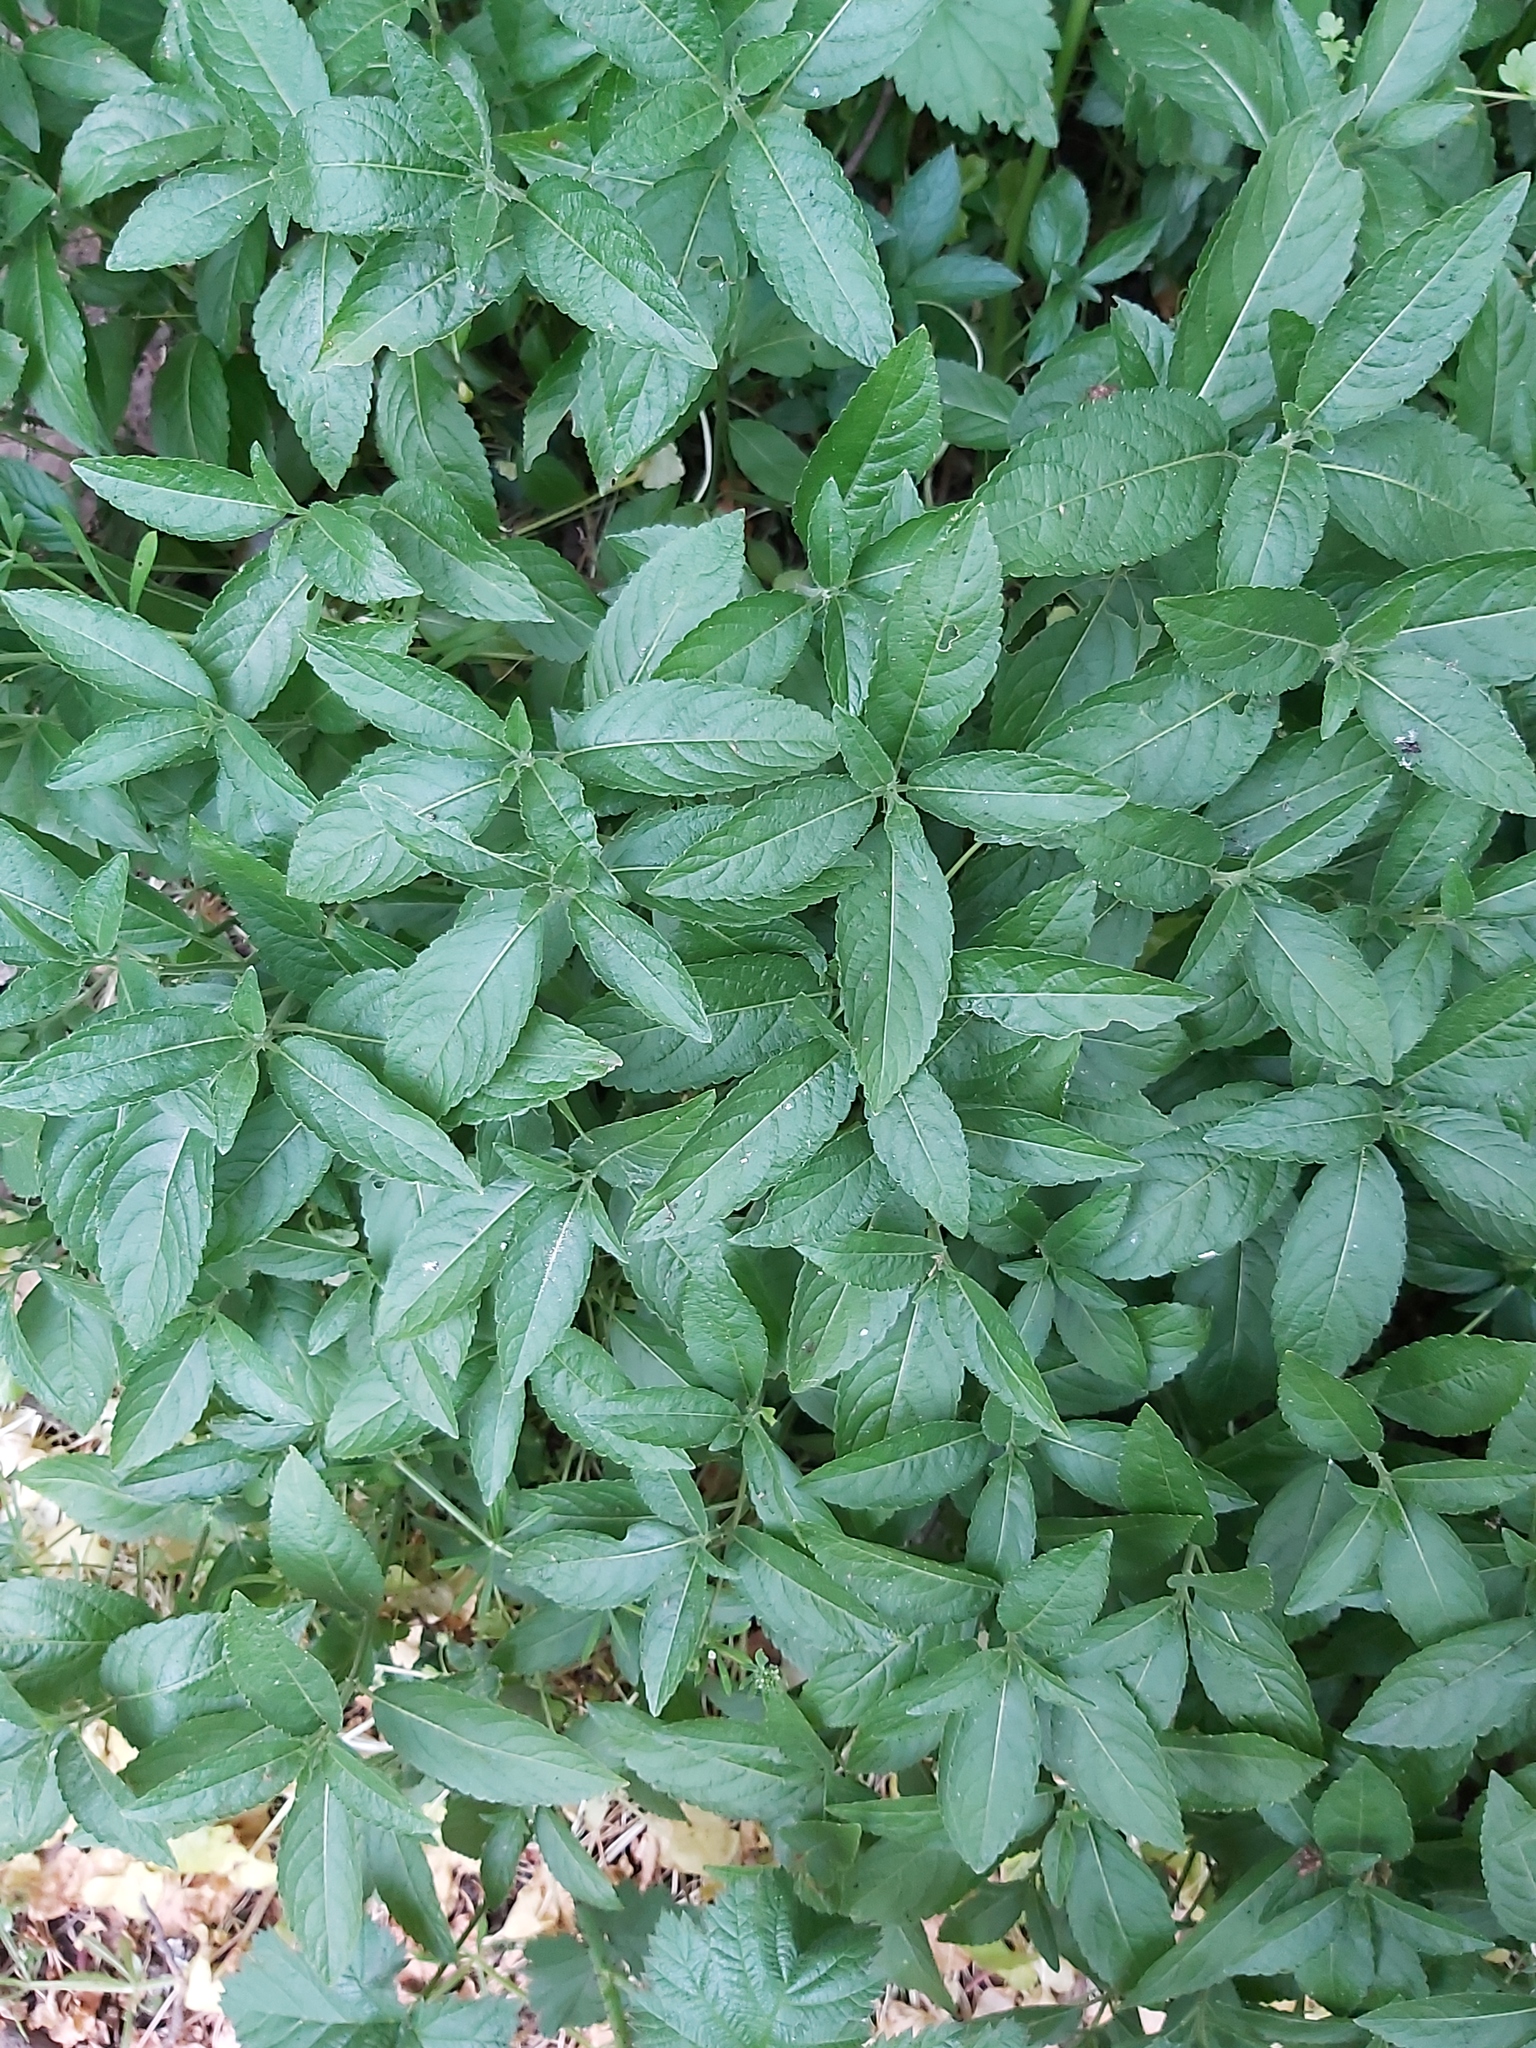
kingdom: Plantae
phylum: Tracheophyta
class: Magnoliopsida
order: Malpighiales
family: Euphorbiaceae
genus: Mercurialis
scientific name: Mercurialis perennis
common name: Dog mercury
